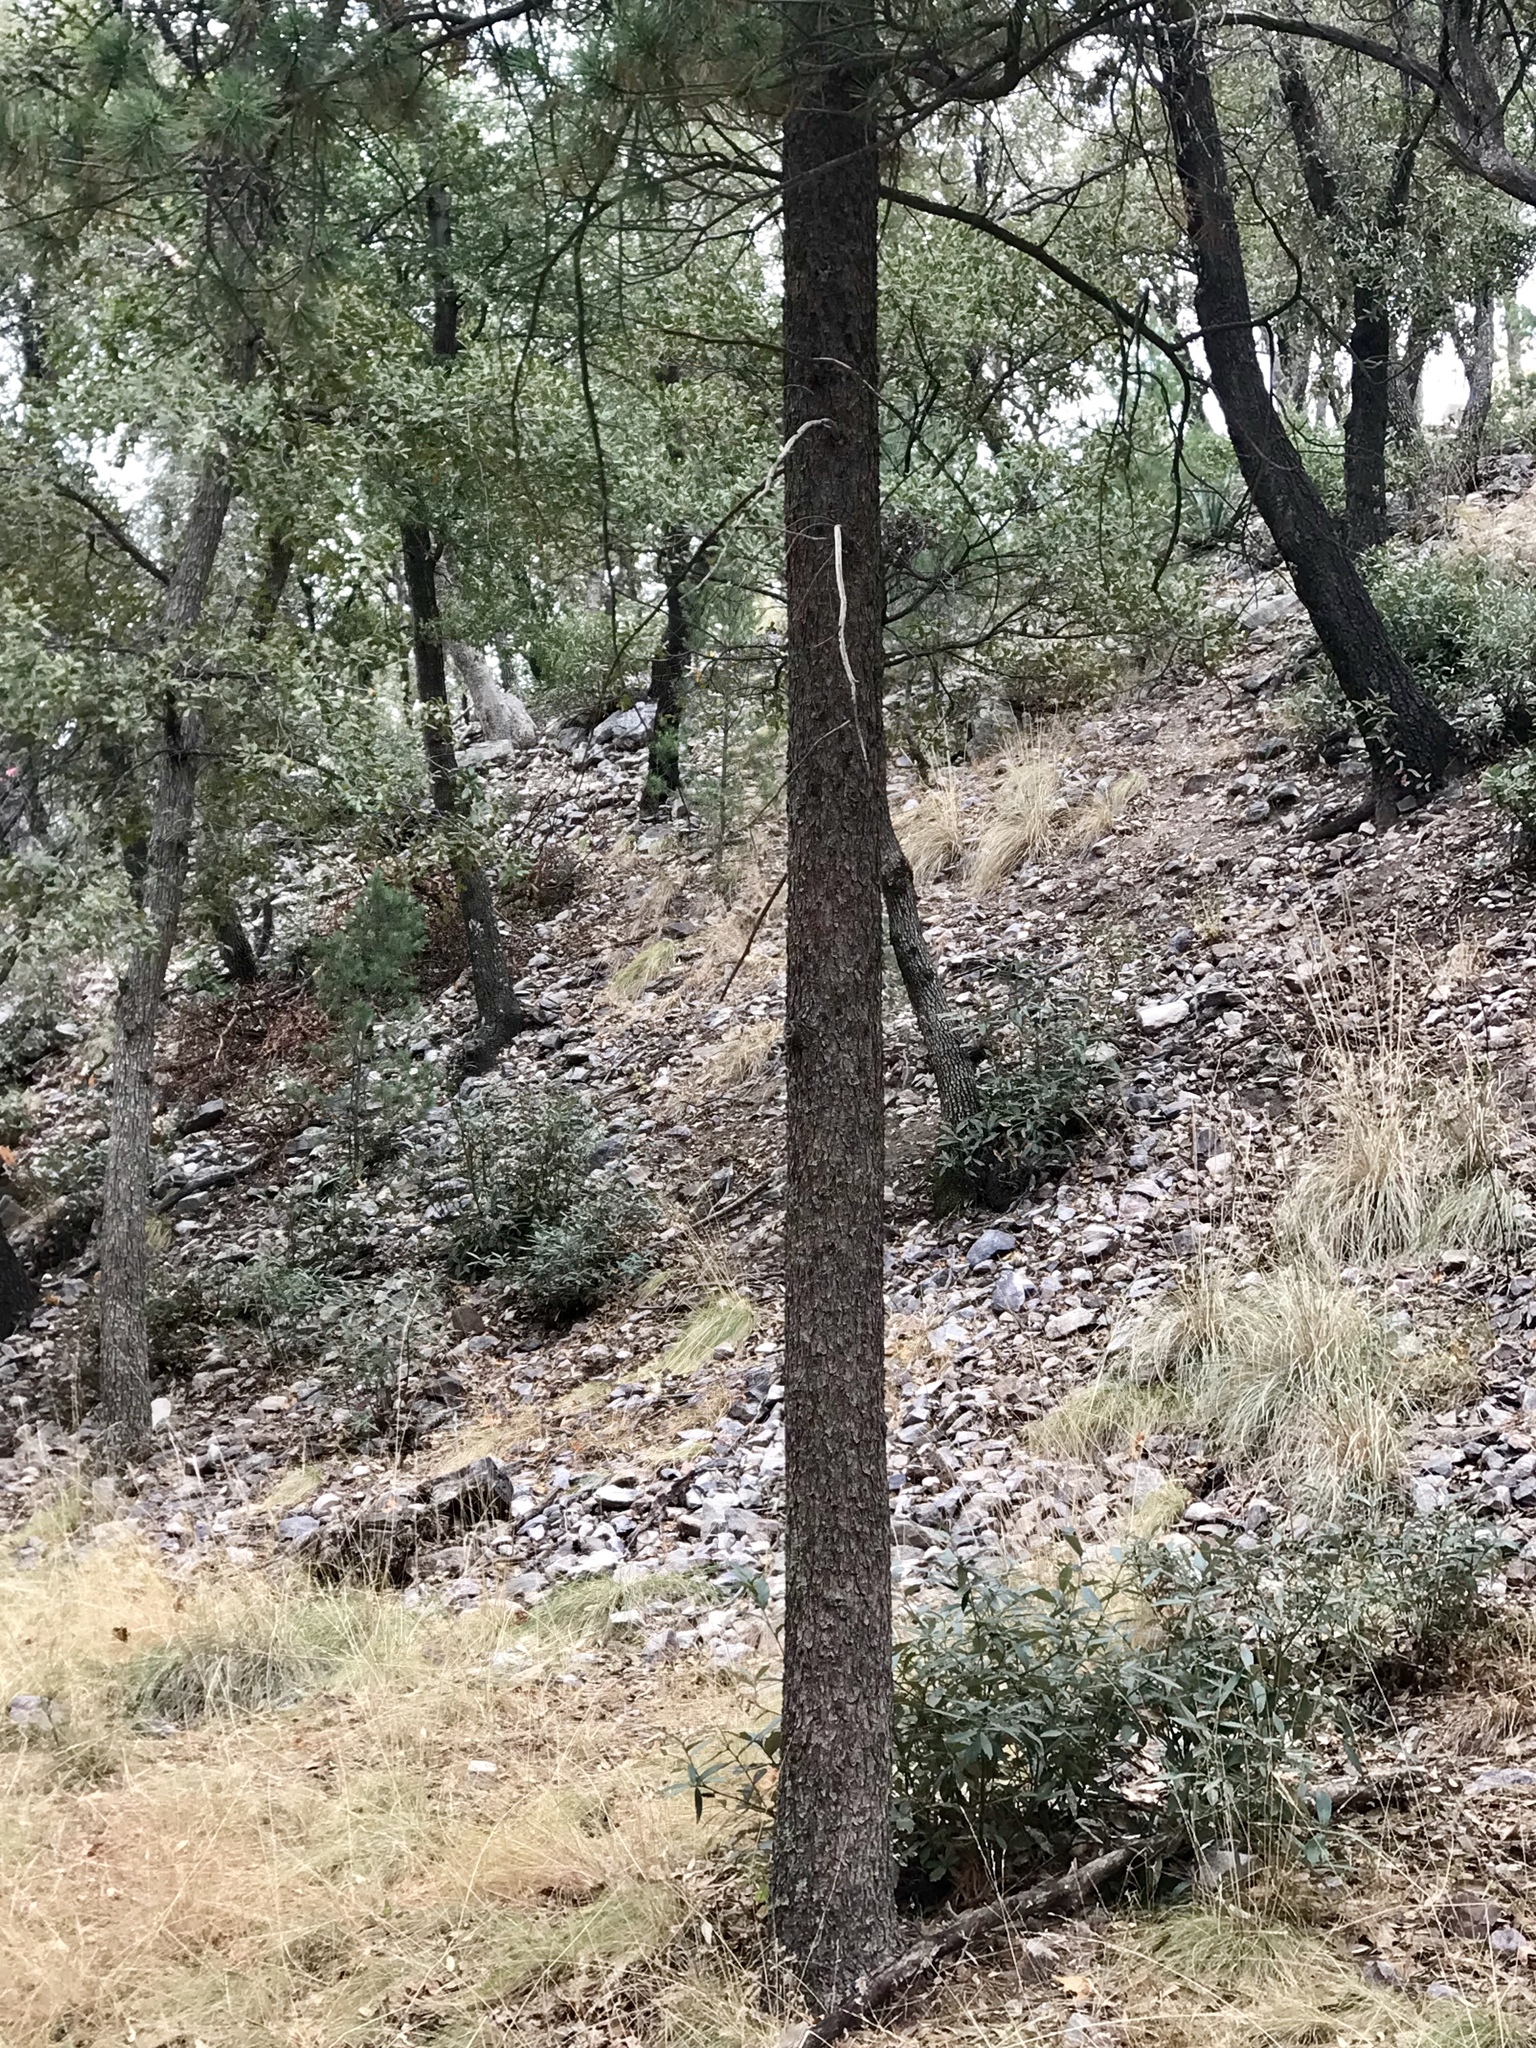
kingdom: Plantae
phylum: Tracheophyta
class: Pinopsida
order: Pinales
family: Pinaceae
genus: Pinus
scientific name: Pinus leiophylla
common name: Chihuahua pine
